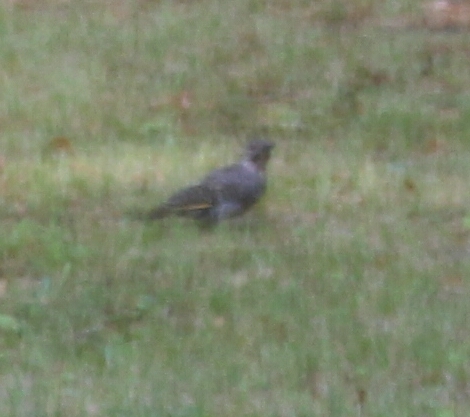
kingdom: Animalia
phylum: Chordata
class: Aves
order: Piciformes
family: Picidae
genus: Colaptes
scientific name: Colaptes auratus
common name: Northern flicker
